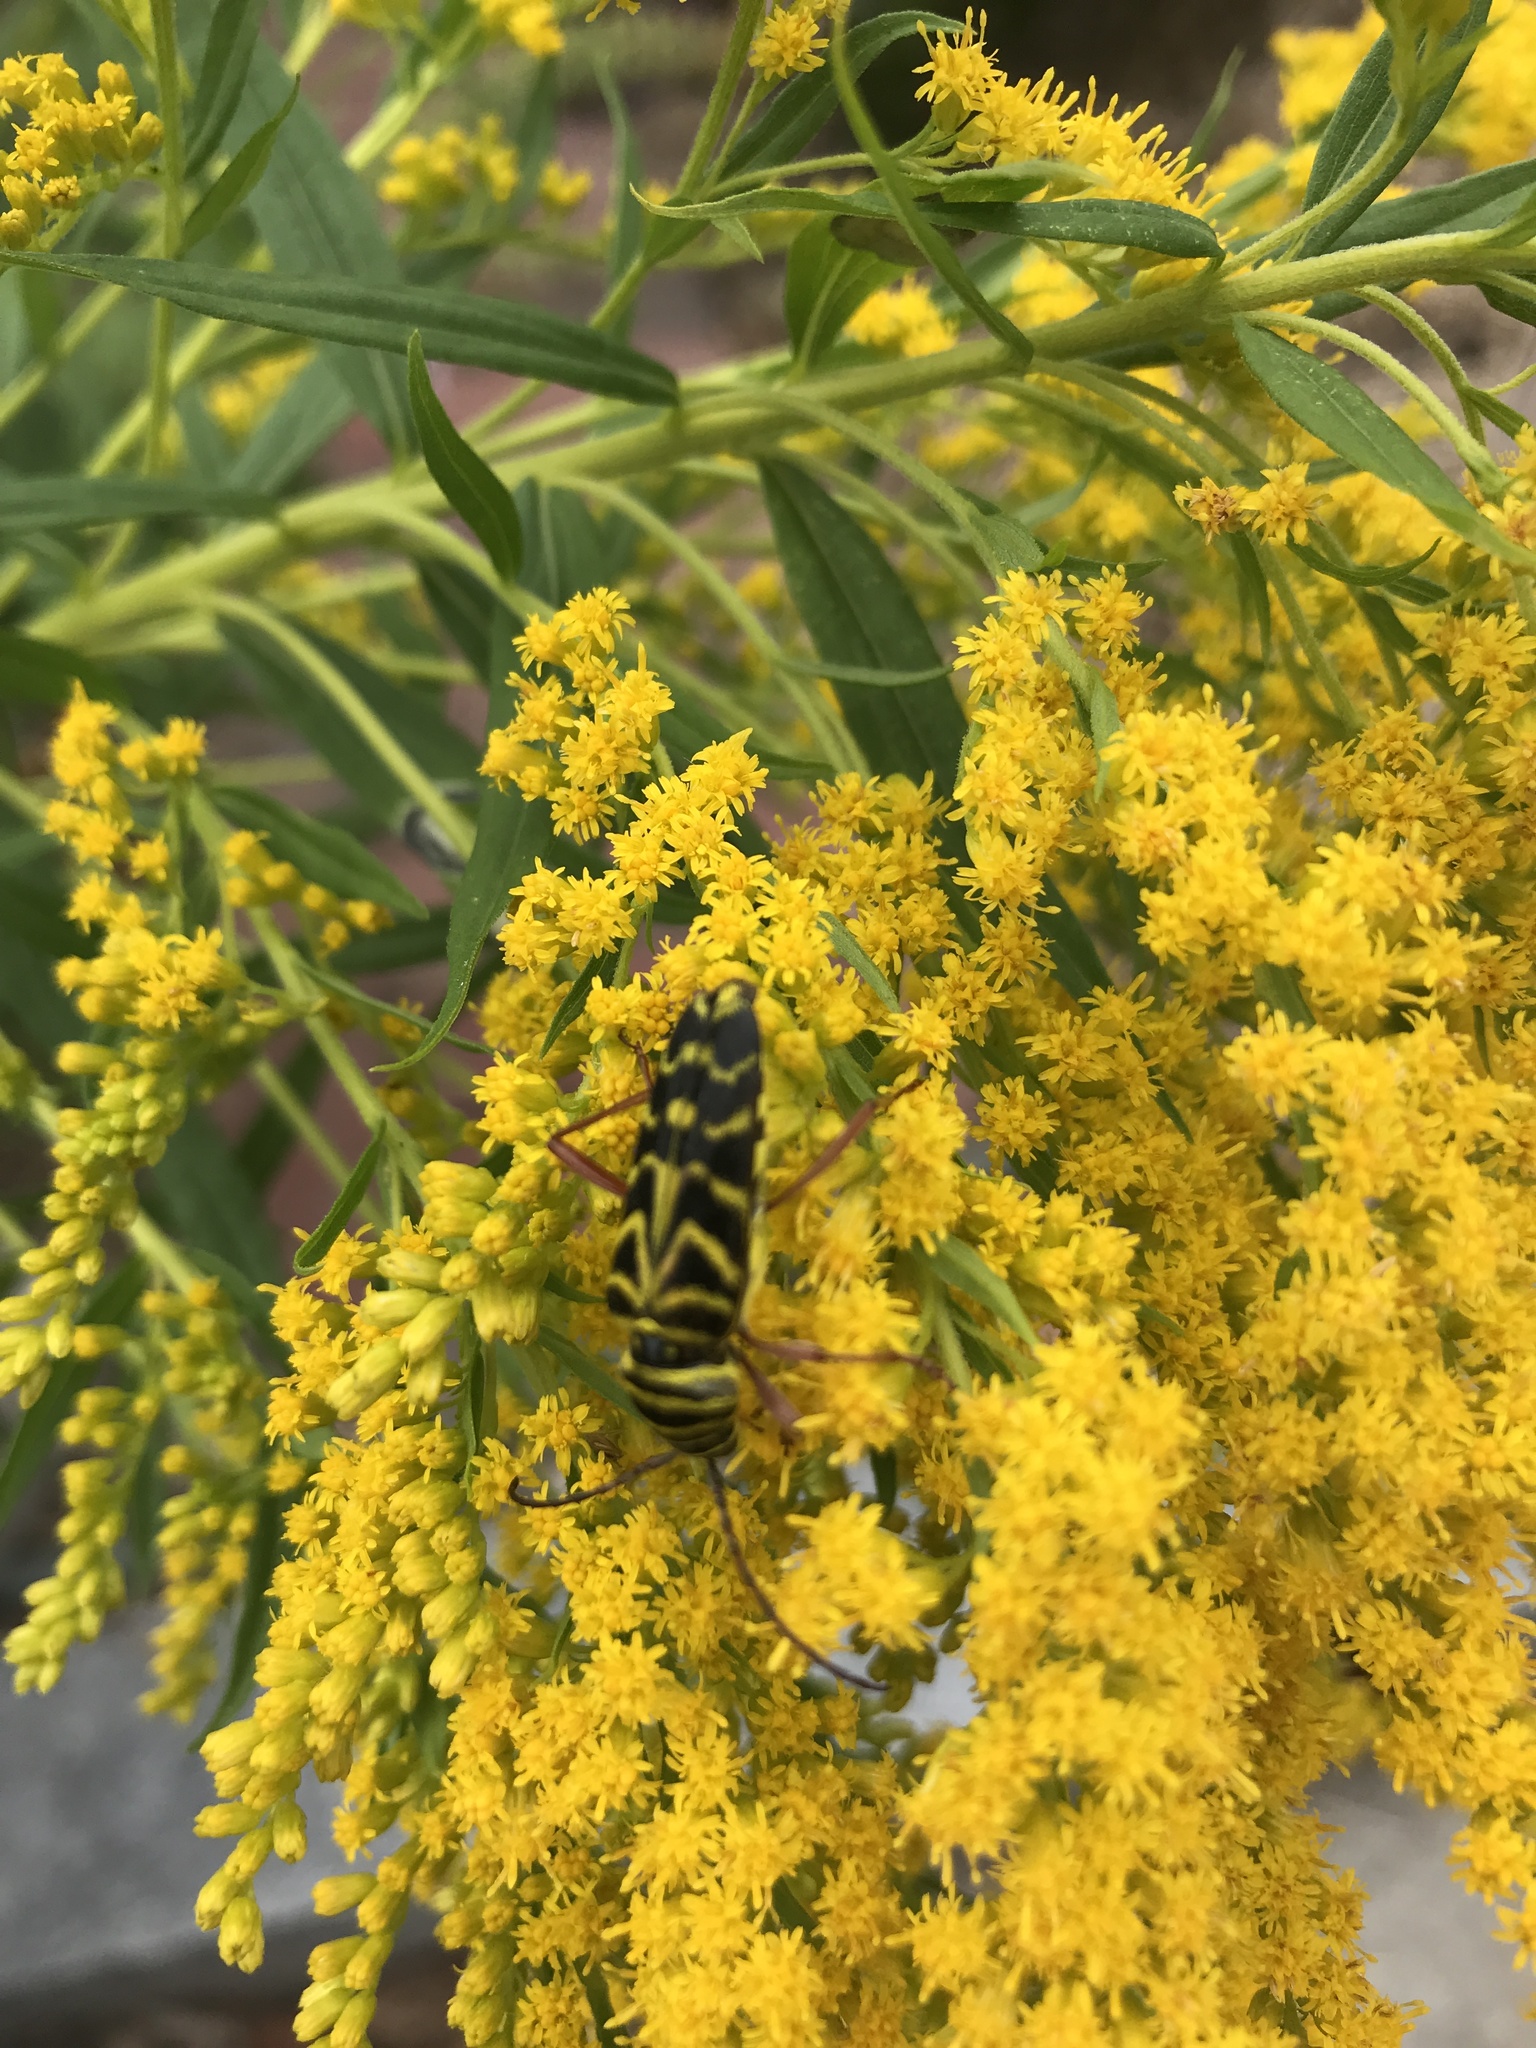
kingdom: Animalia
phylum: Arthropoda
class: Insecta
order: Coleoptera
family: Cerambycidae
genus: Megacyllene
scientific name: Megacyllene robiniae
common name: Locust borer
